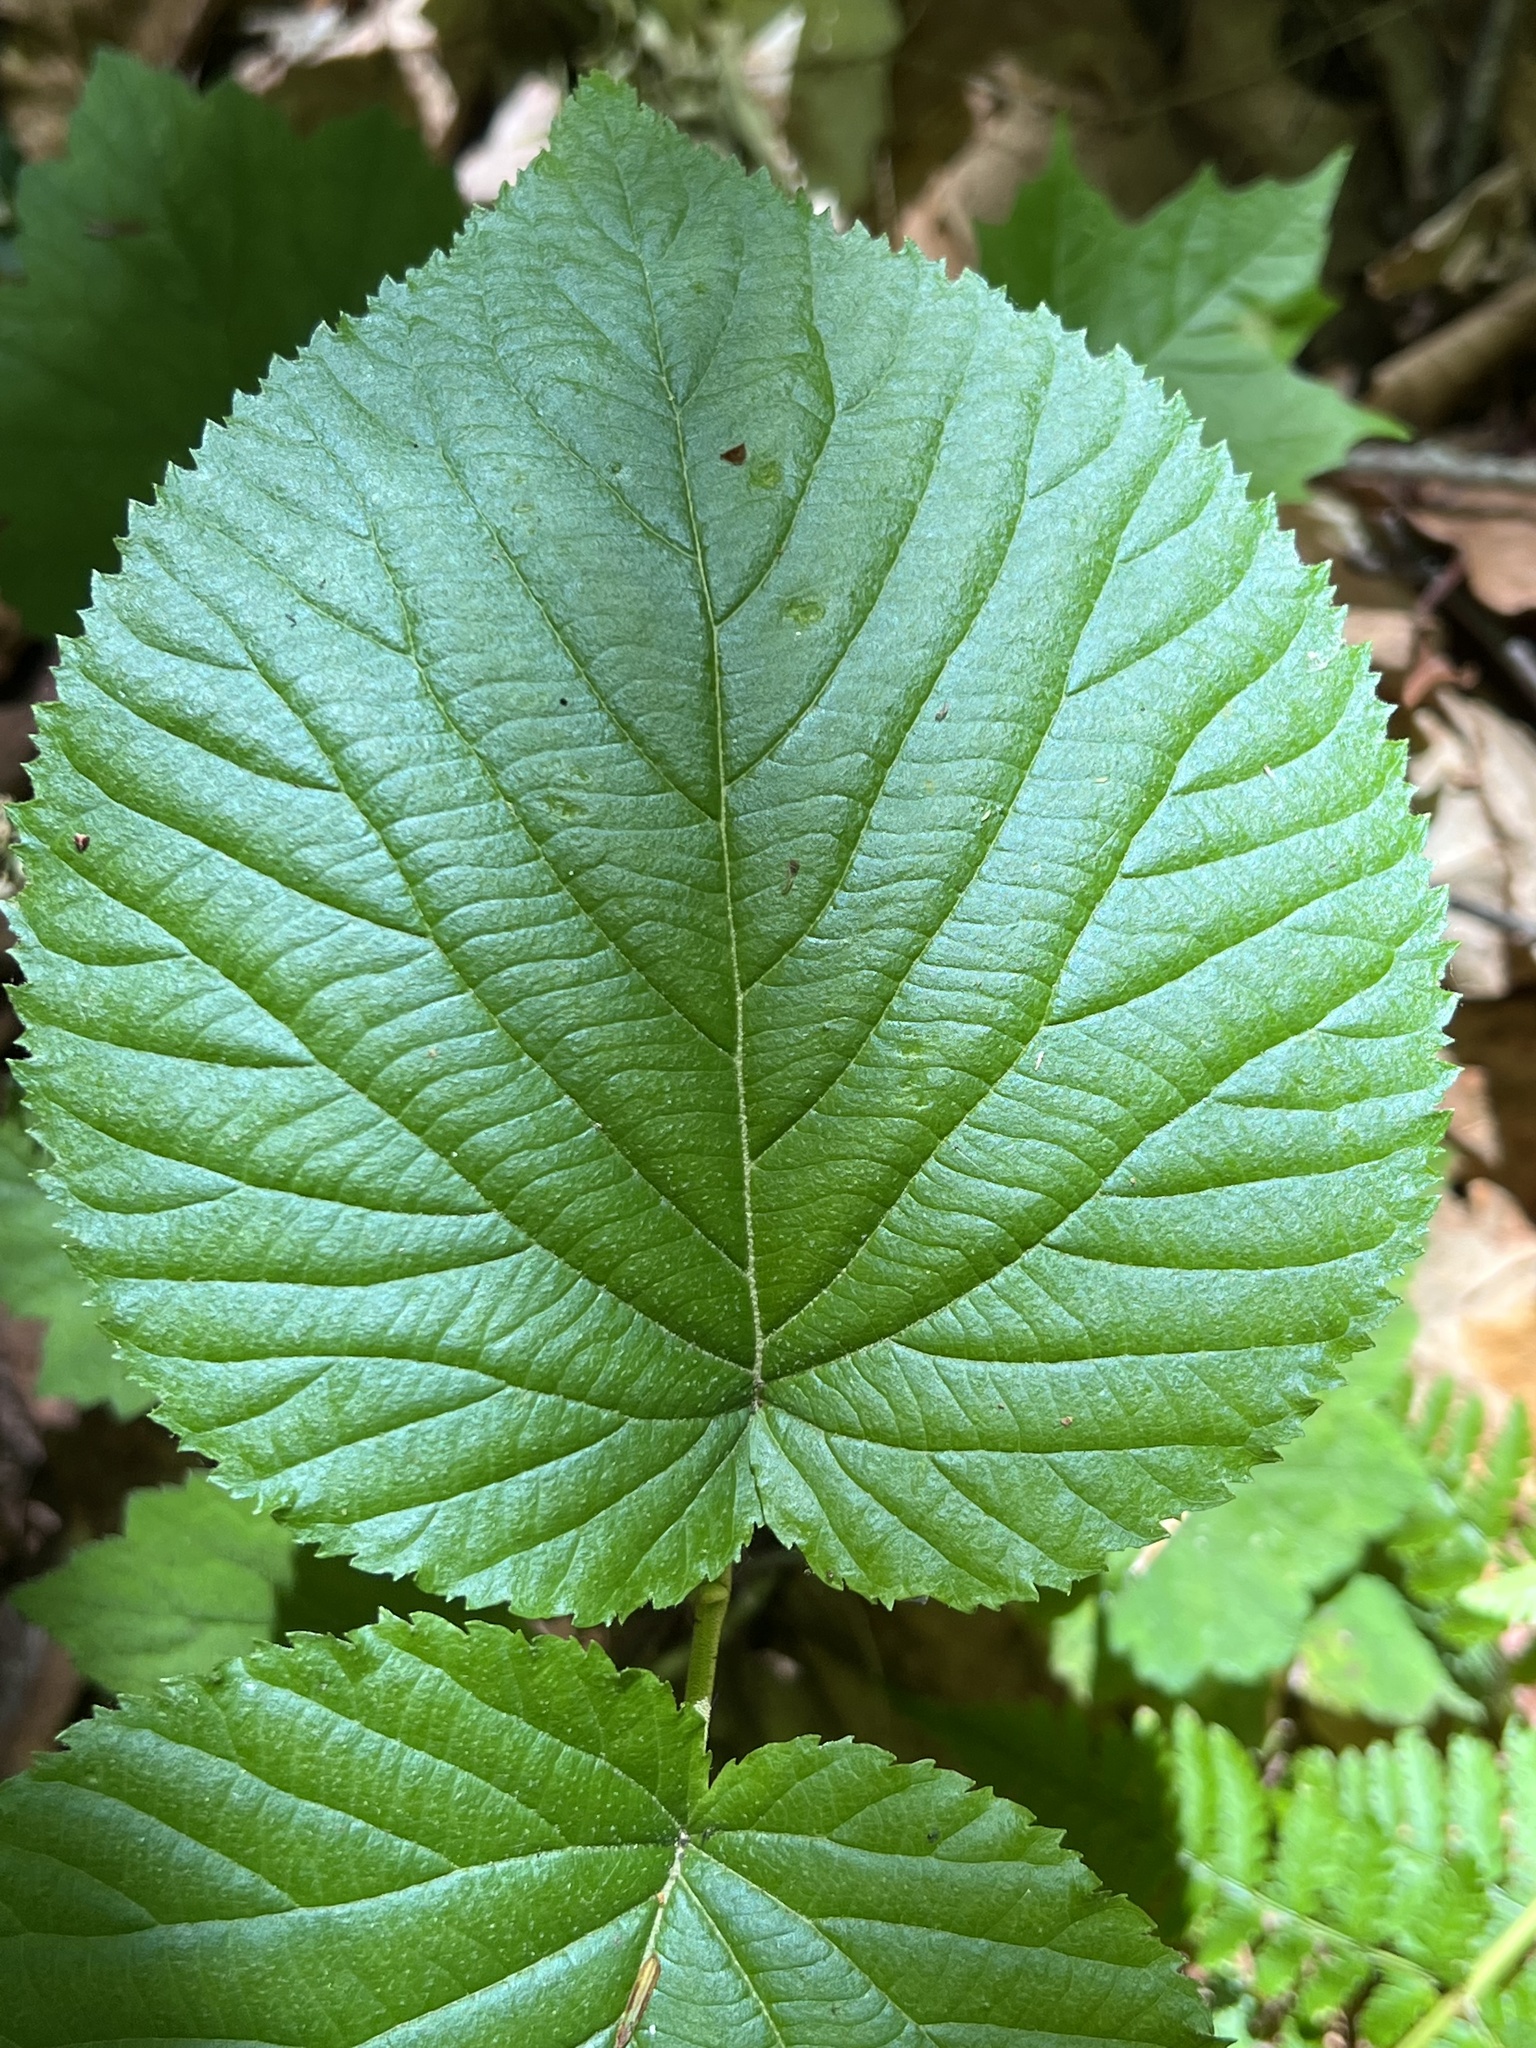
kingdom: Plantae
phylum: Tracheophyta
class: Magnoliopsida
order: Dipsacales
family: Viburnaceae
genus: Viburnum
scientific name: Viburnum lantanoides
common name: Hobblebush
